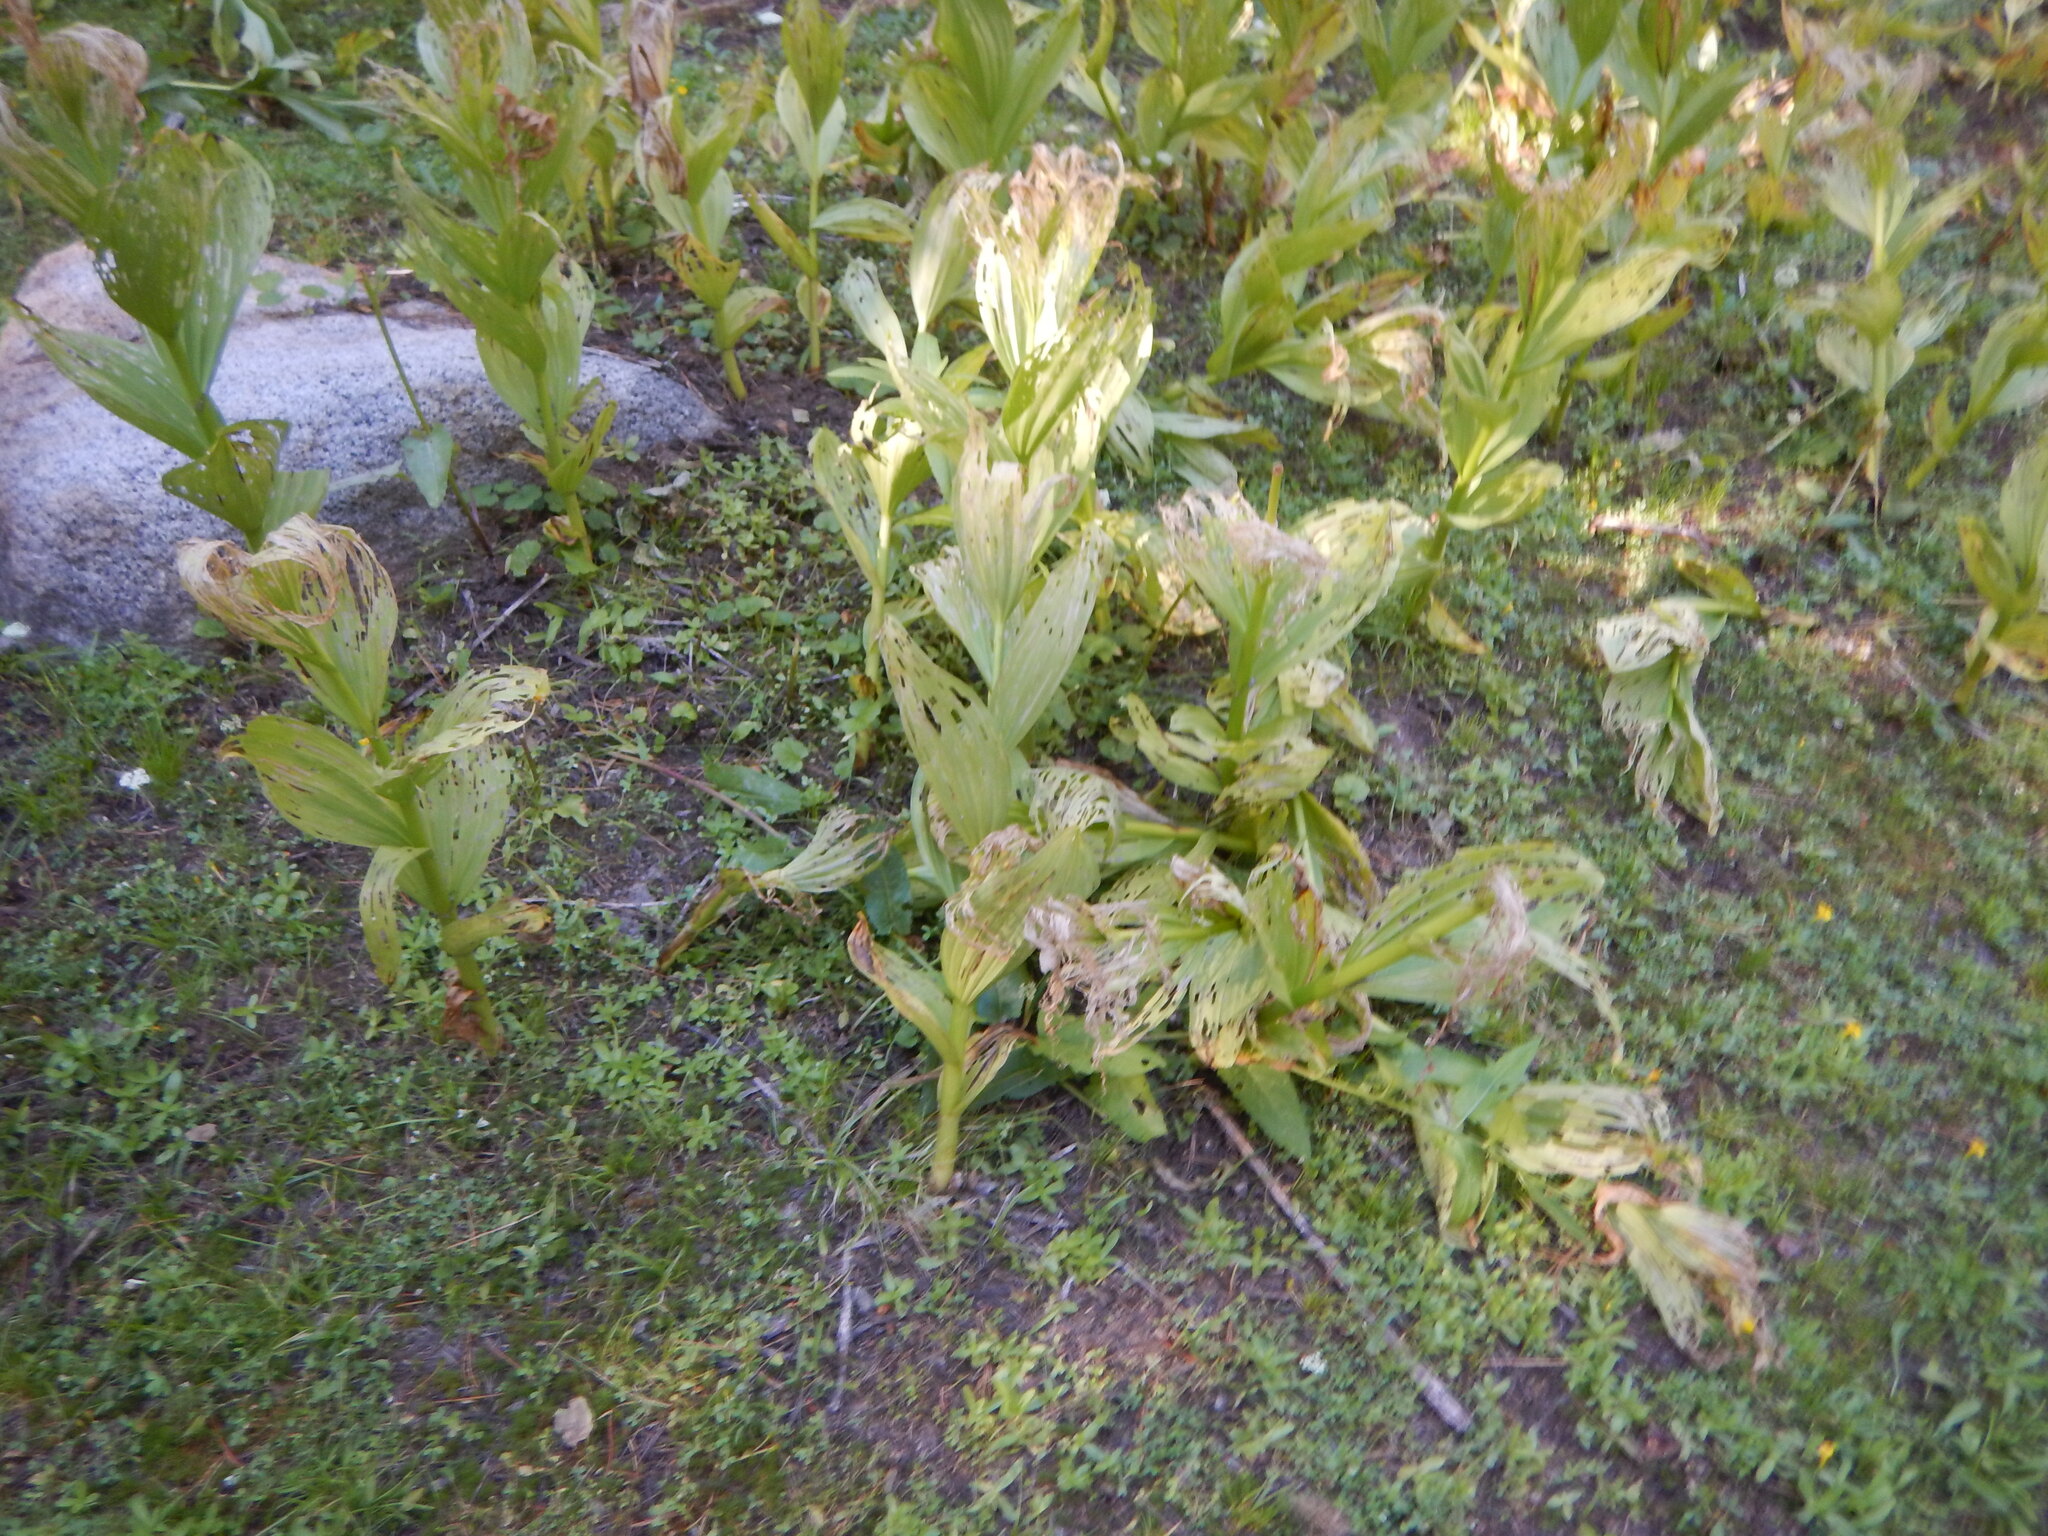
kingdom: Plantae
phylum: Tracheophyta
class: Liliopsida
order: Liliales
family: Melanthiaceae
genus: Veratrum
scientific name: Veratrum californicum
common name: California veratrum
